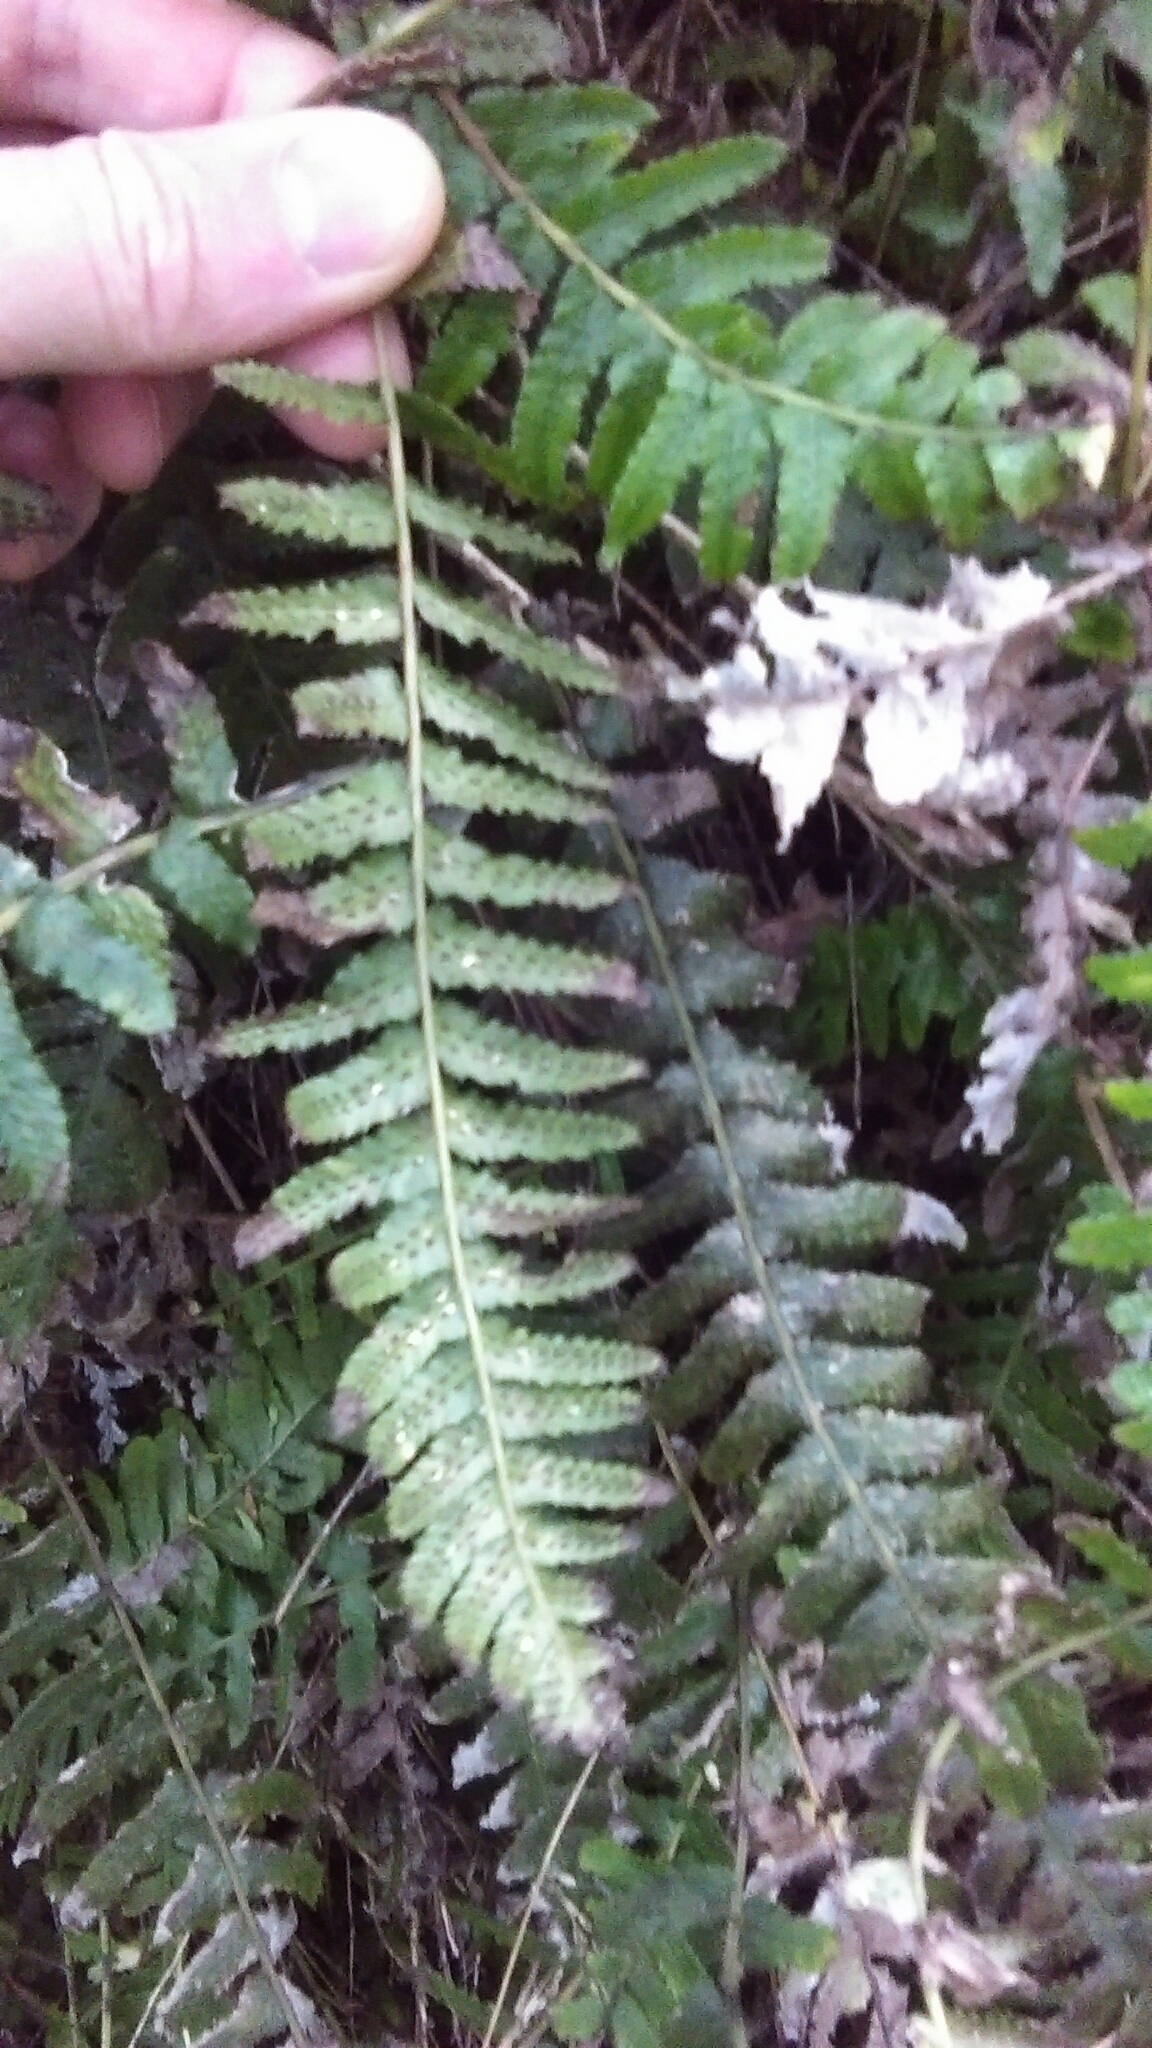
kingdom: Plantae
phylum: Tracheophyta
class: Polypodiopsida
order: Polypodiales
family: Blechnaceae
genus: Doodia
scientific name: Doodia australis
